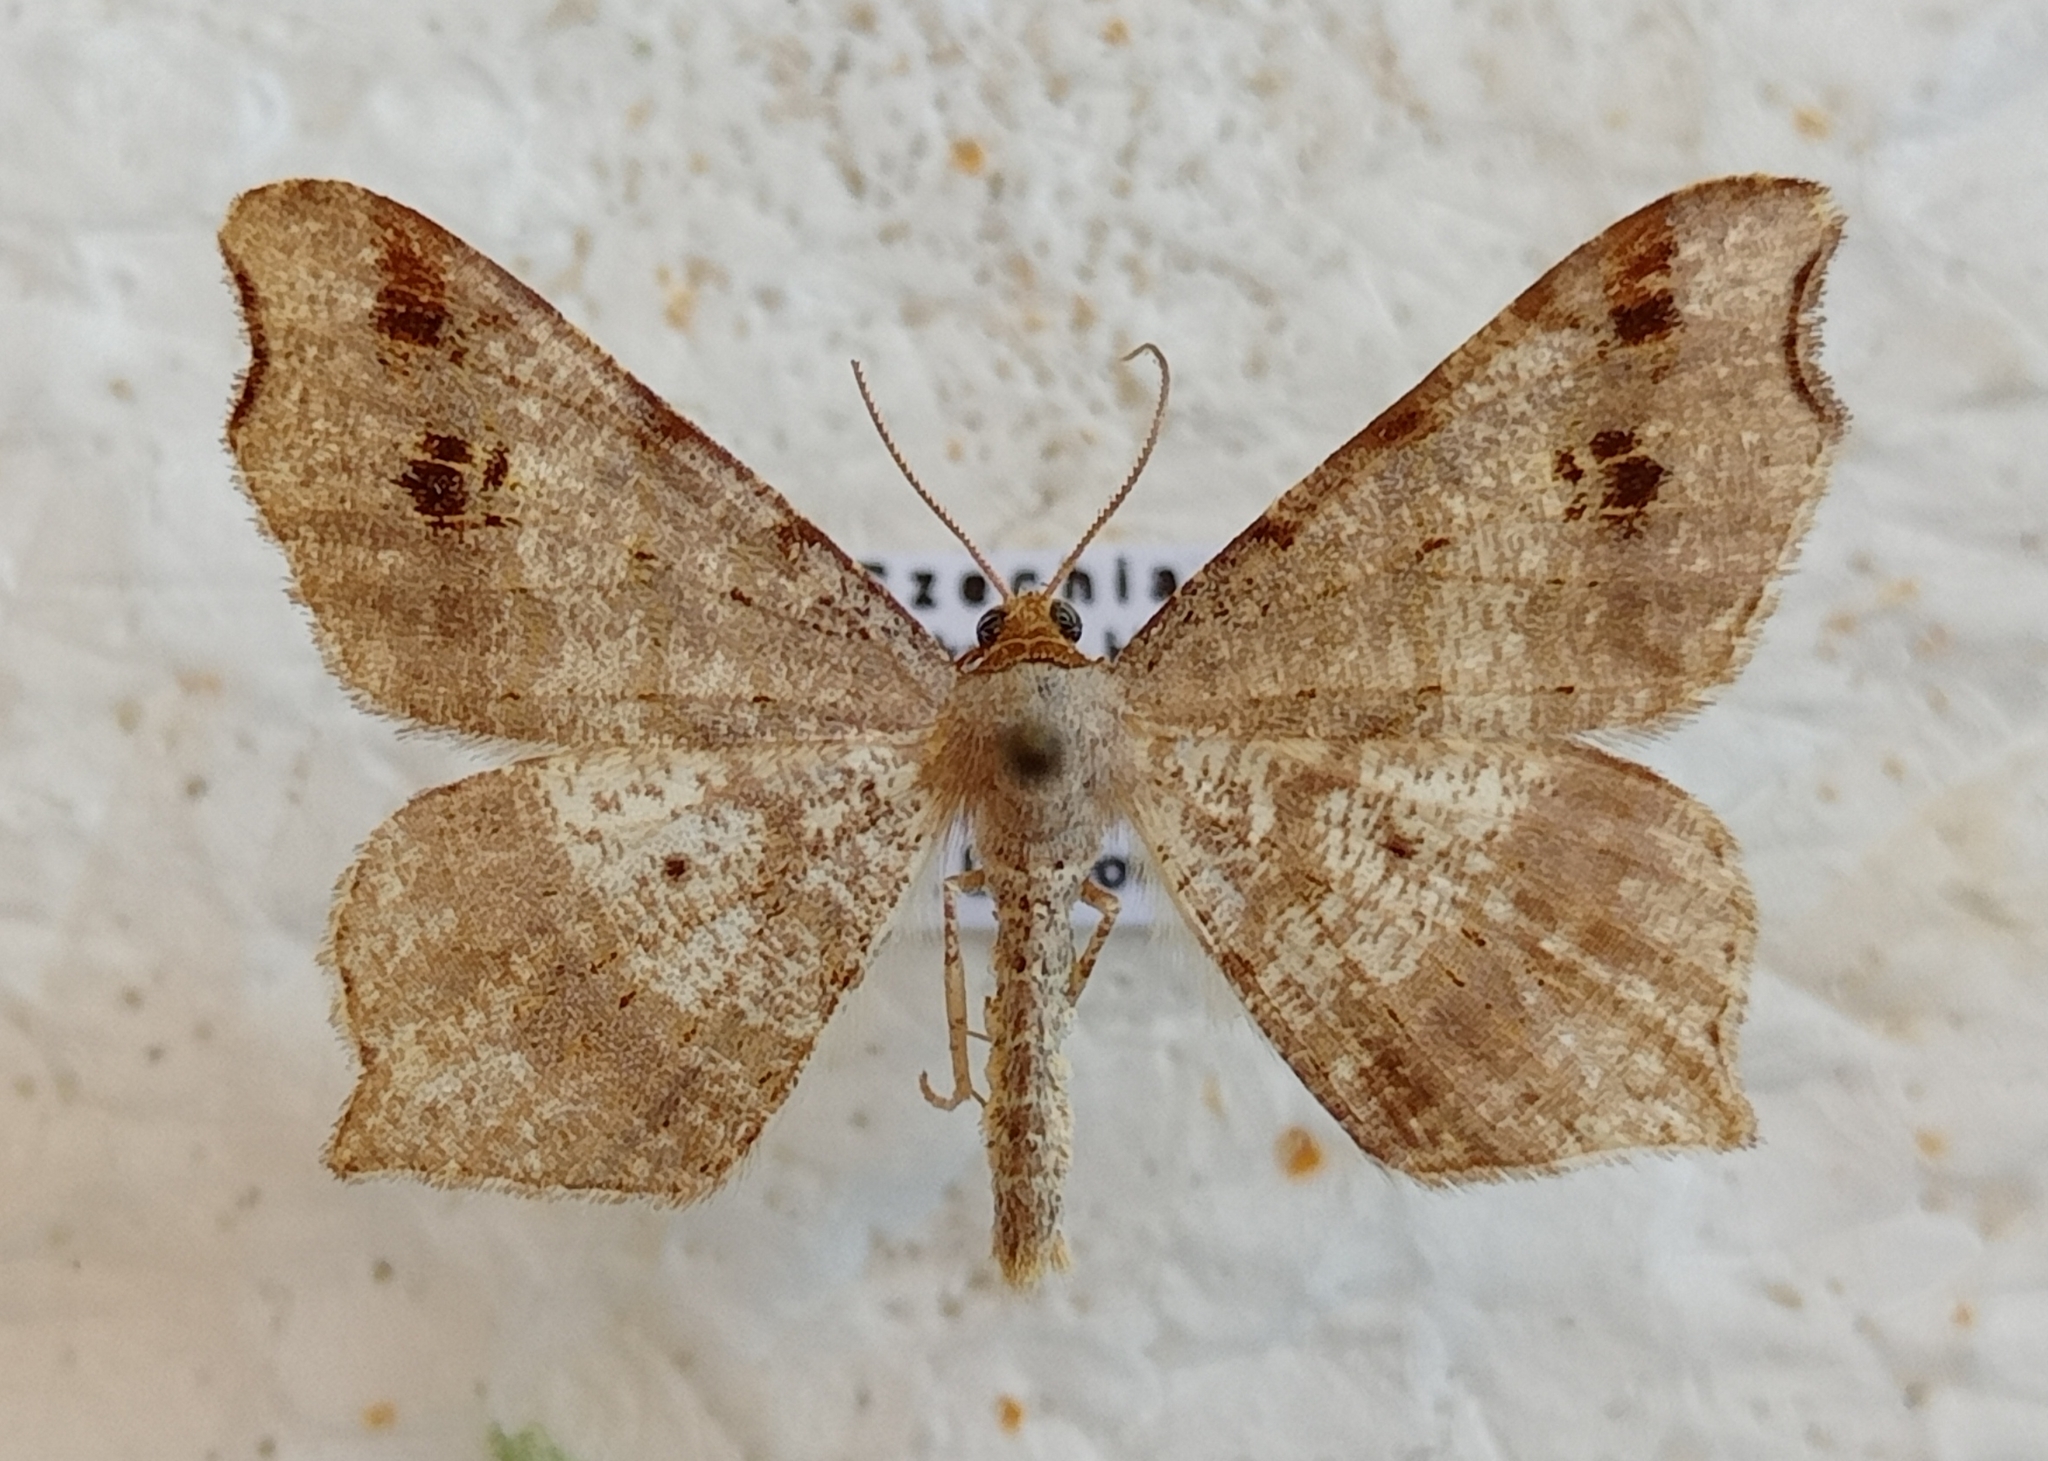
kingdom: Animalia
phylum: Arthropoda
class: Insecta
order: Lepidoptera
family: Geometridae
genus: Macaria
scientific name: Macaria alternata
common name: Sharp-angled peacock
